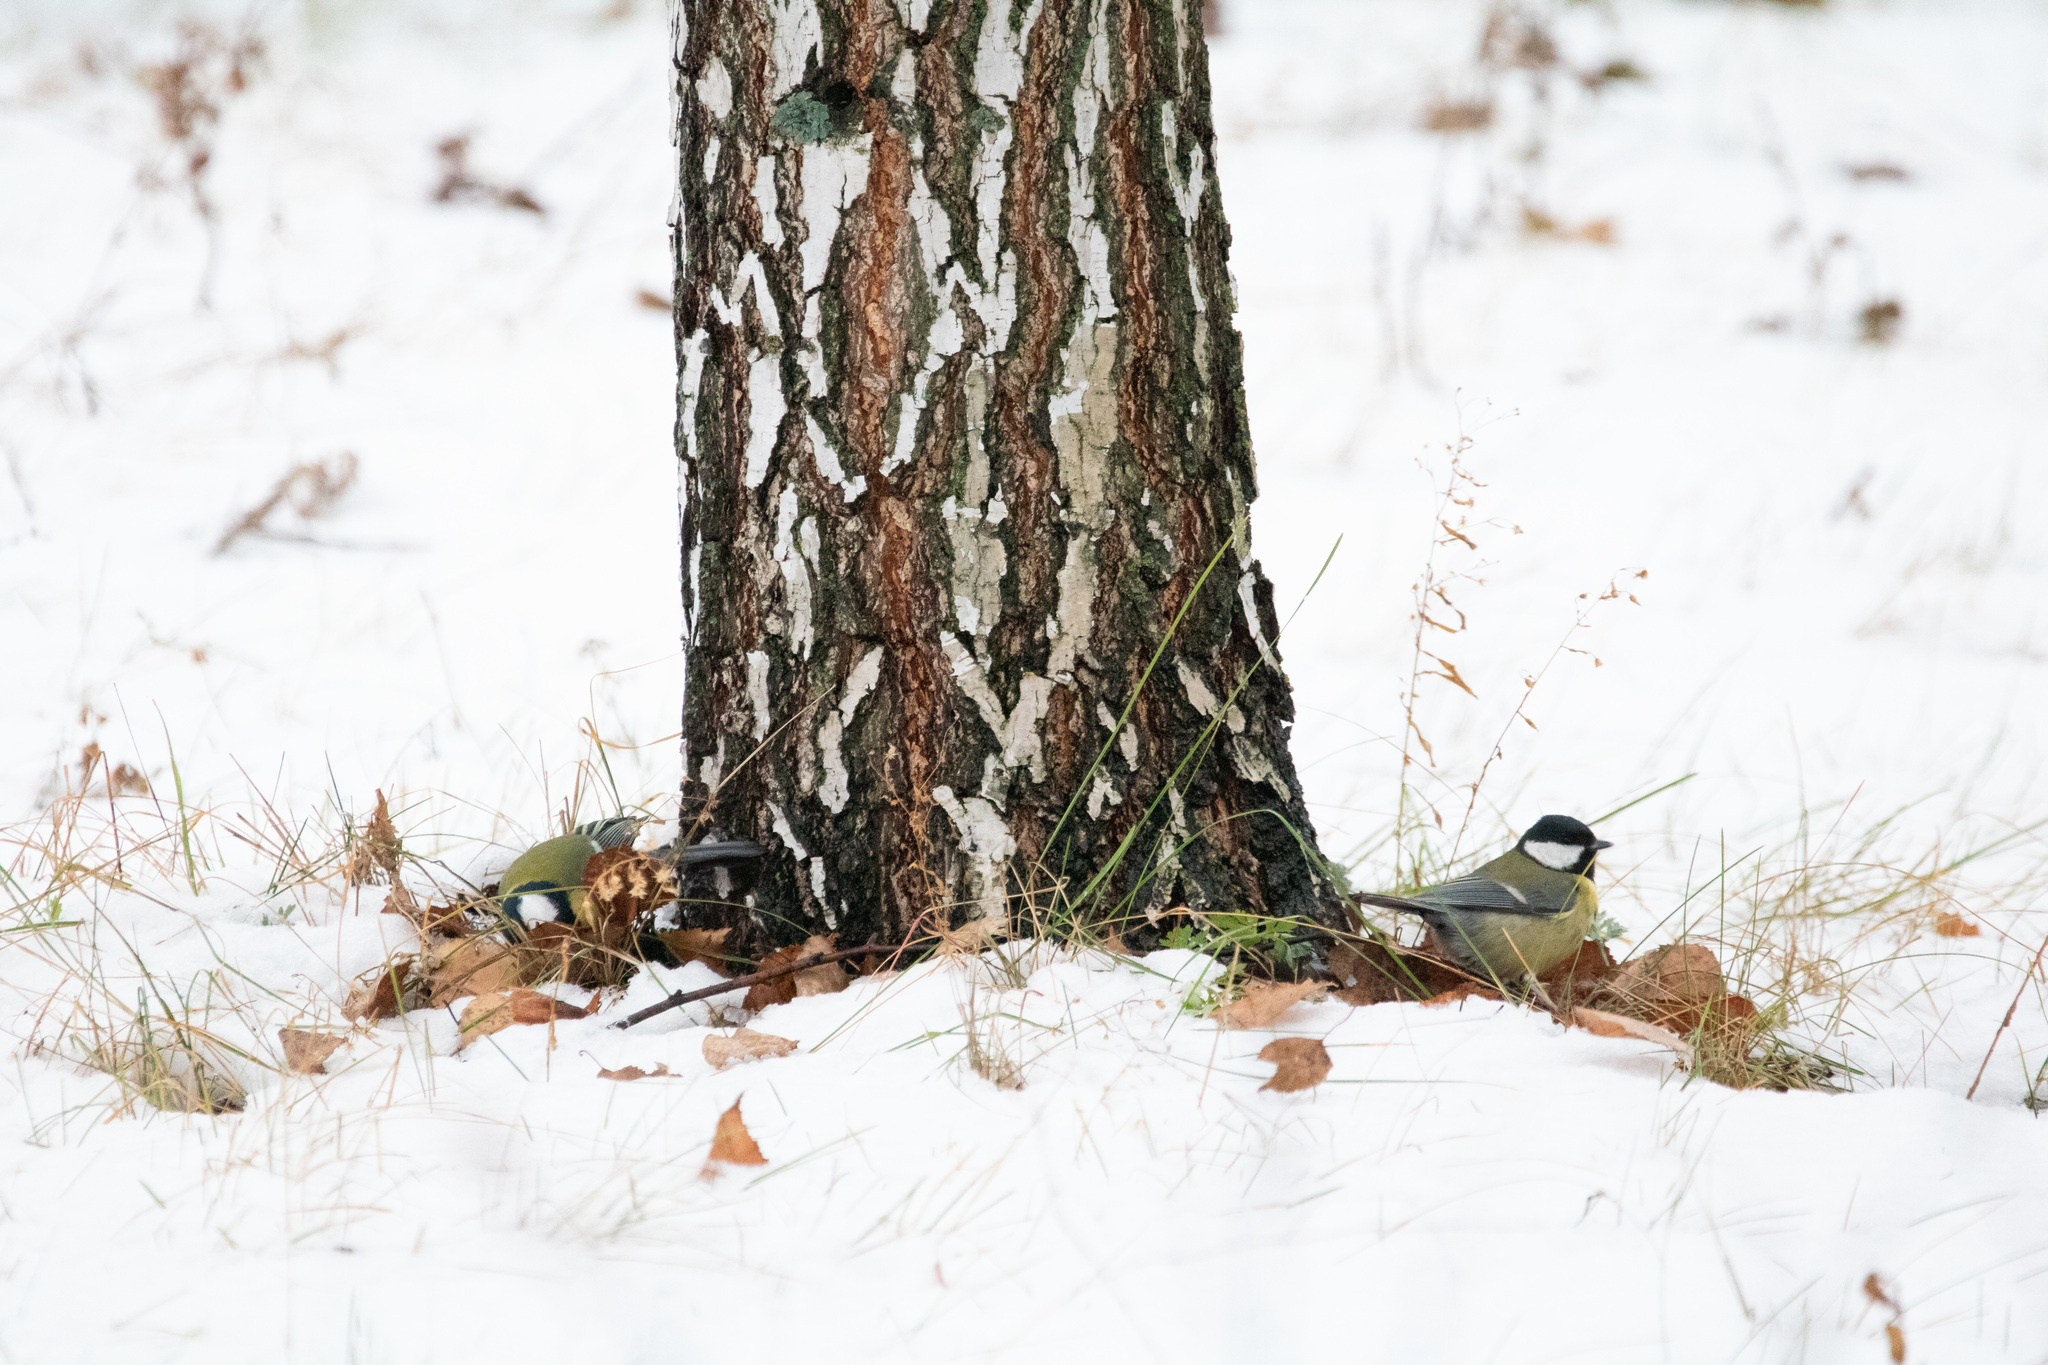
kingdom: Animalia
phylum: Chordata
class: Aves
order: Passeriformes
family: Paridae
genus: Parus
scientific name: Parus major
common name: Great tit
